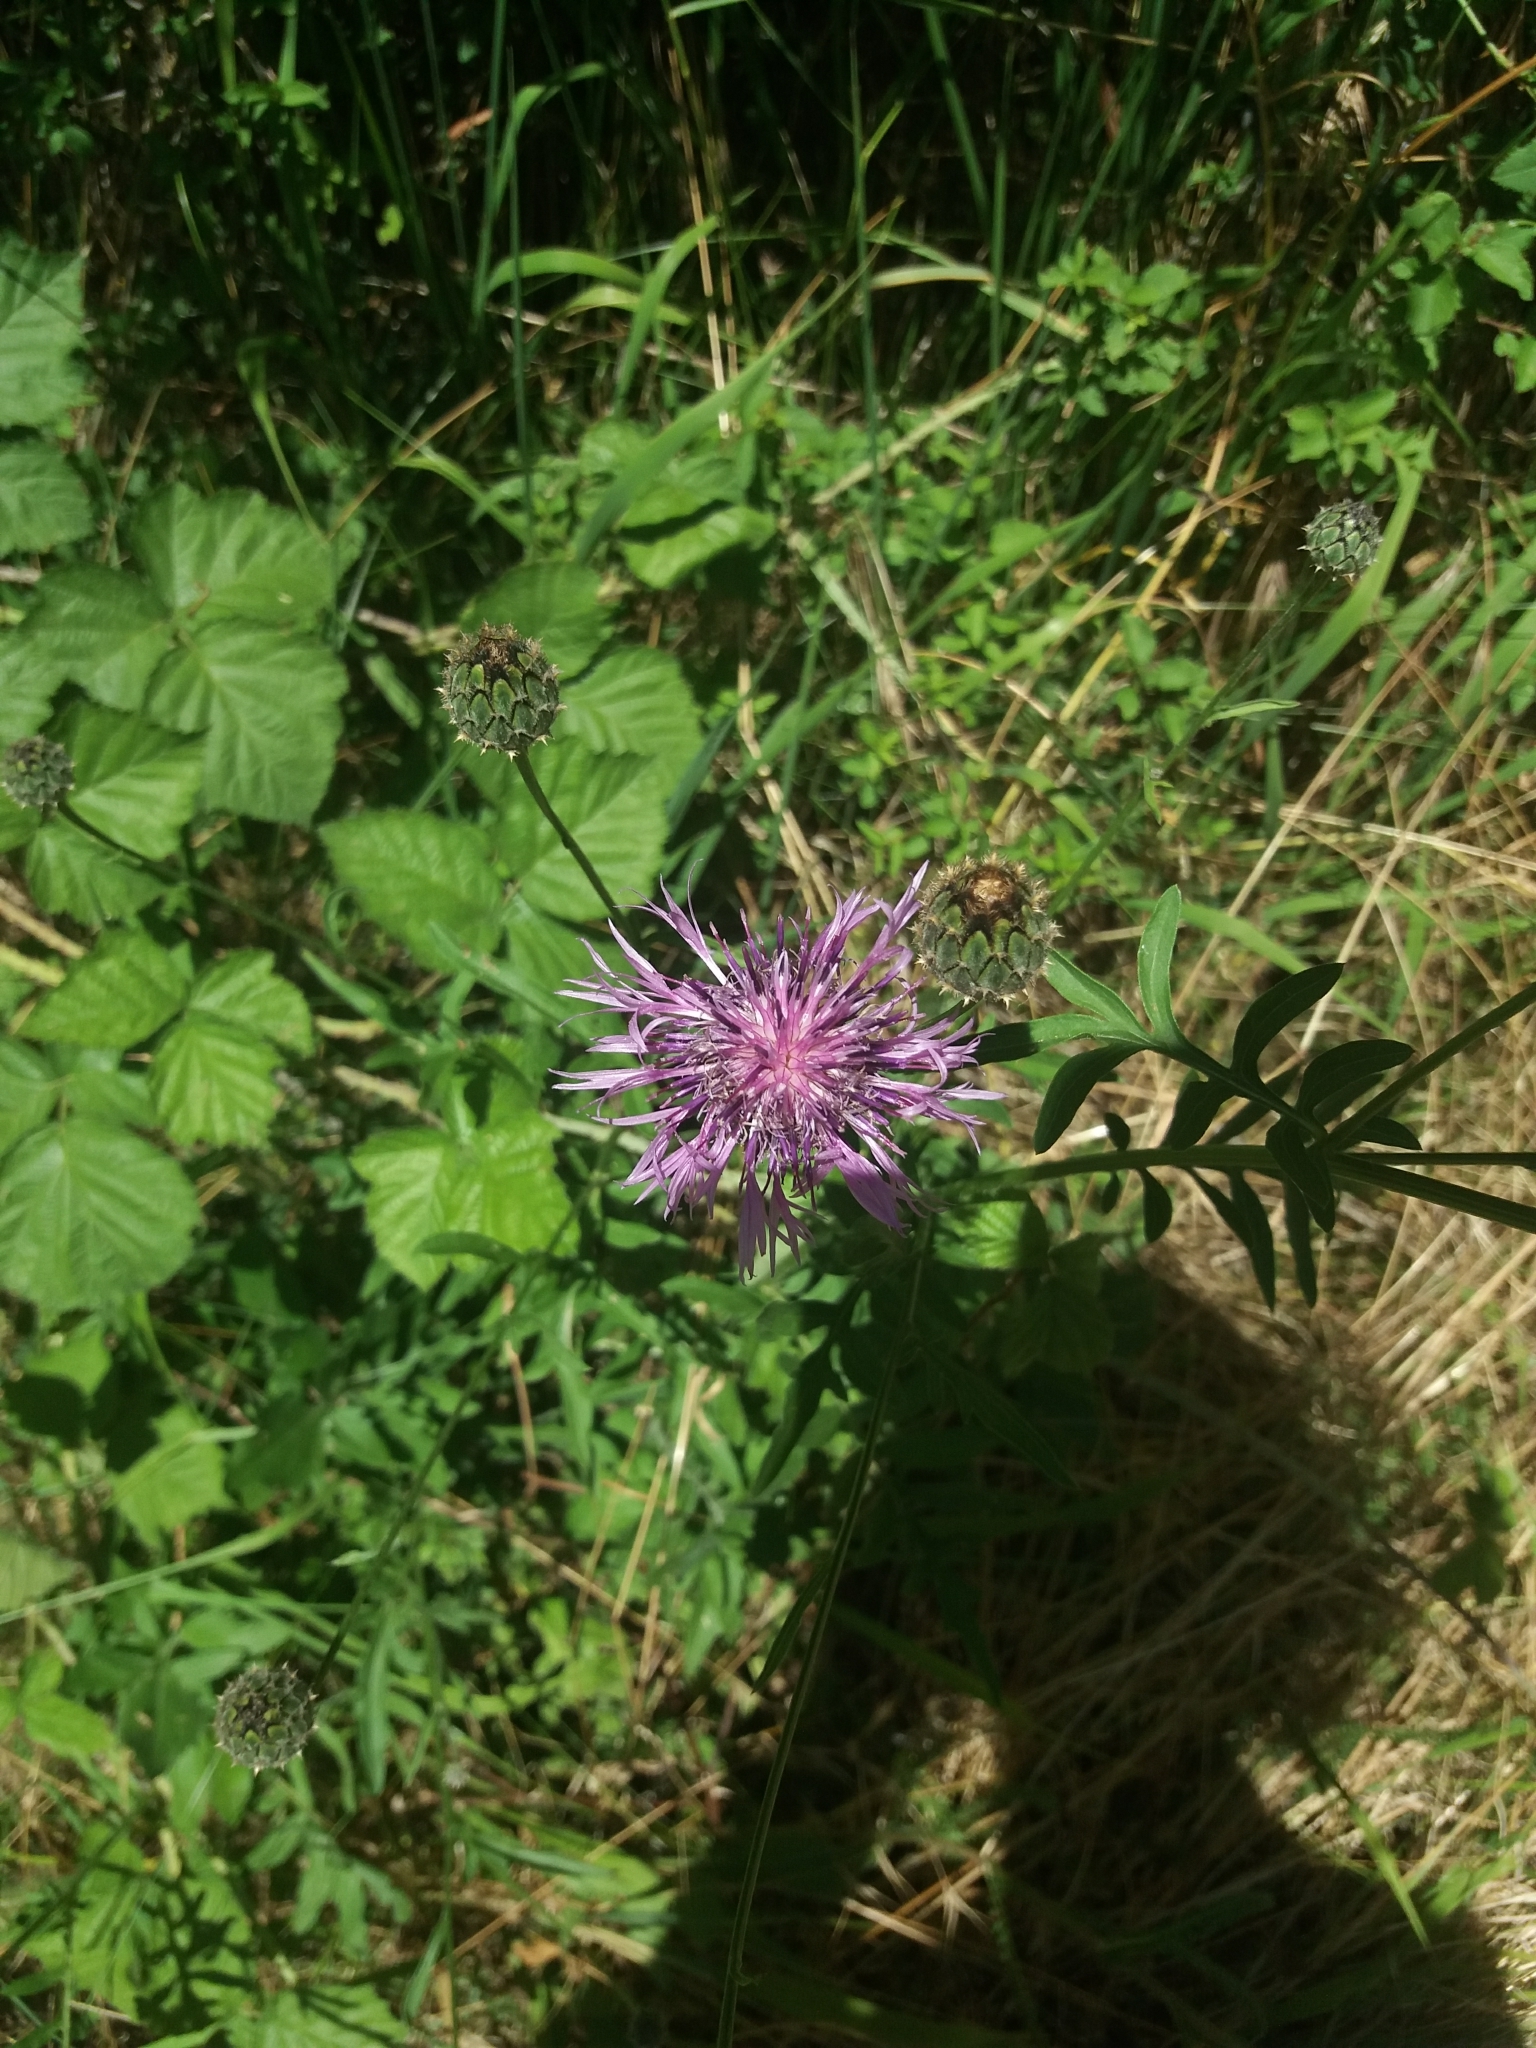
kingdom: Plantae
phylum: Tracheophyta
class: Magnoliopsida
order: Asterales
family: Asteraceae
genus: Centaurea
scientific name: Centaurea scabiosa
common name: Greater knapweed
